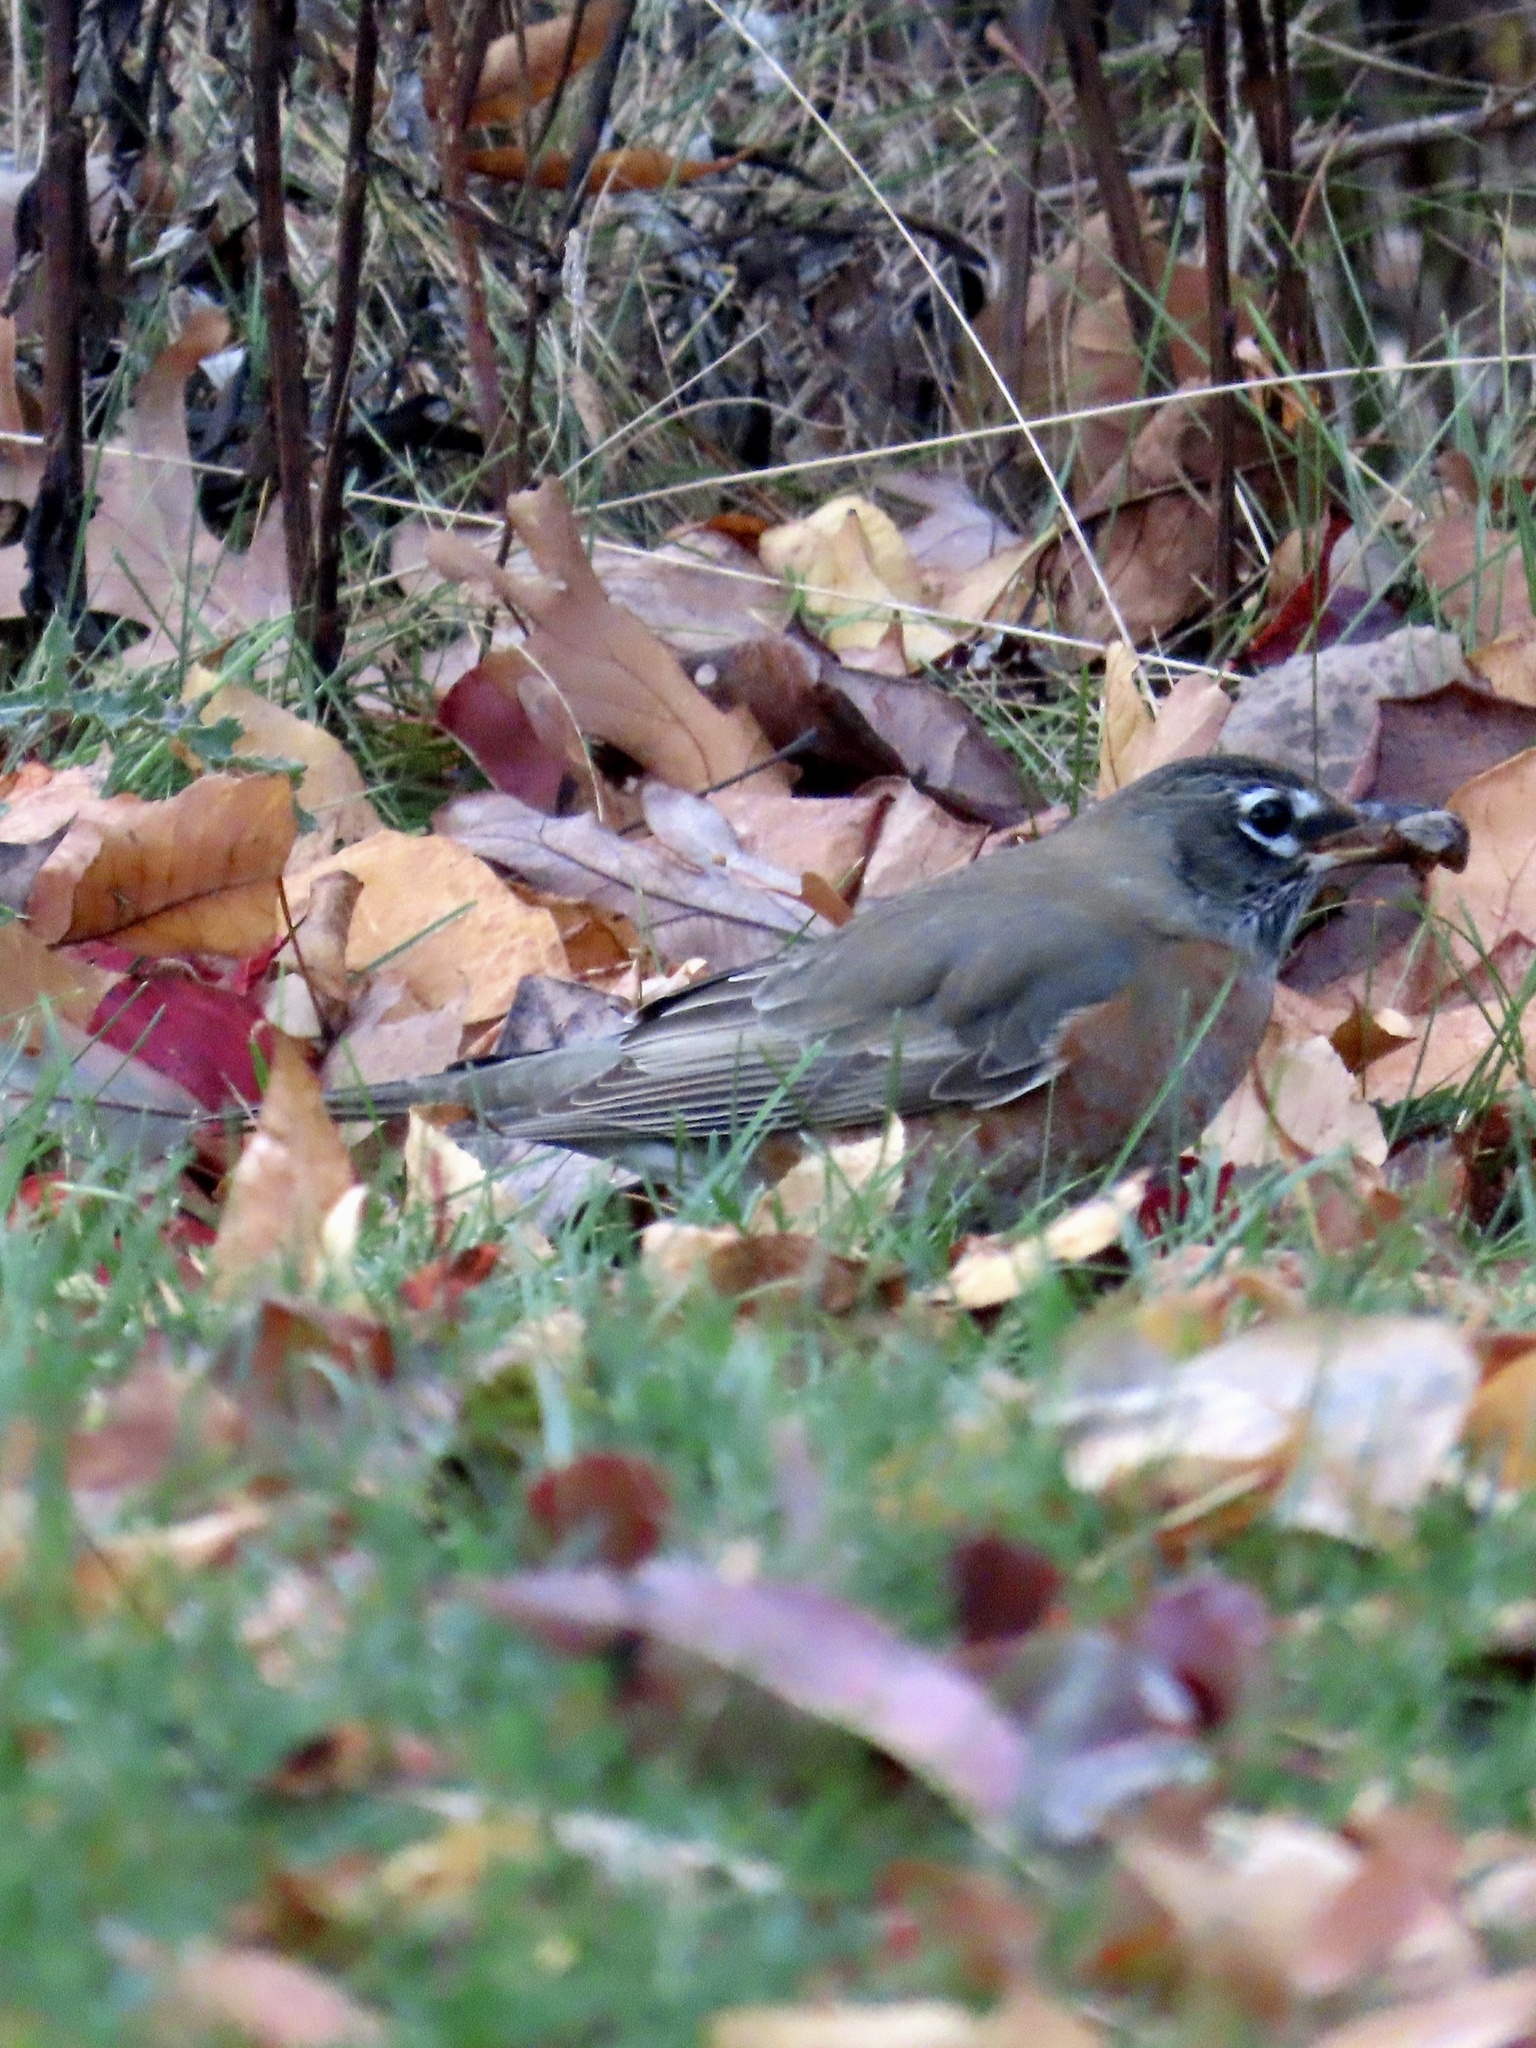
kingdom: Animalia
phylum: Chordata
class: Aves
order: Passeriformes
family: Turdidae
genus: Turdus
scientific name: Turdus migratorius
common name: American robin
